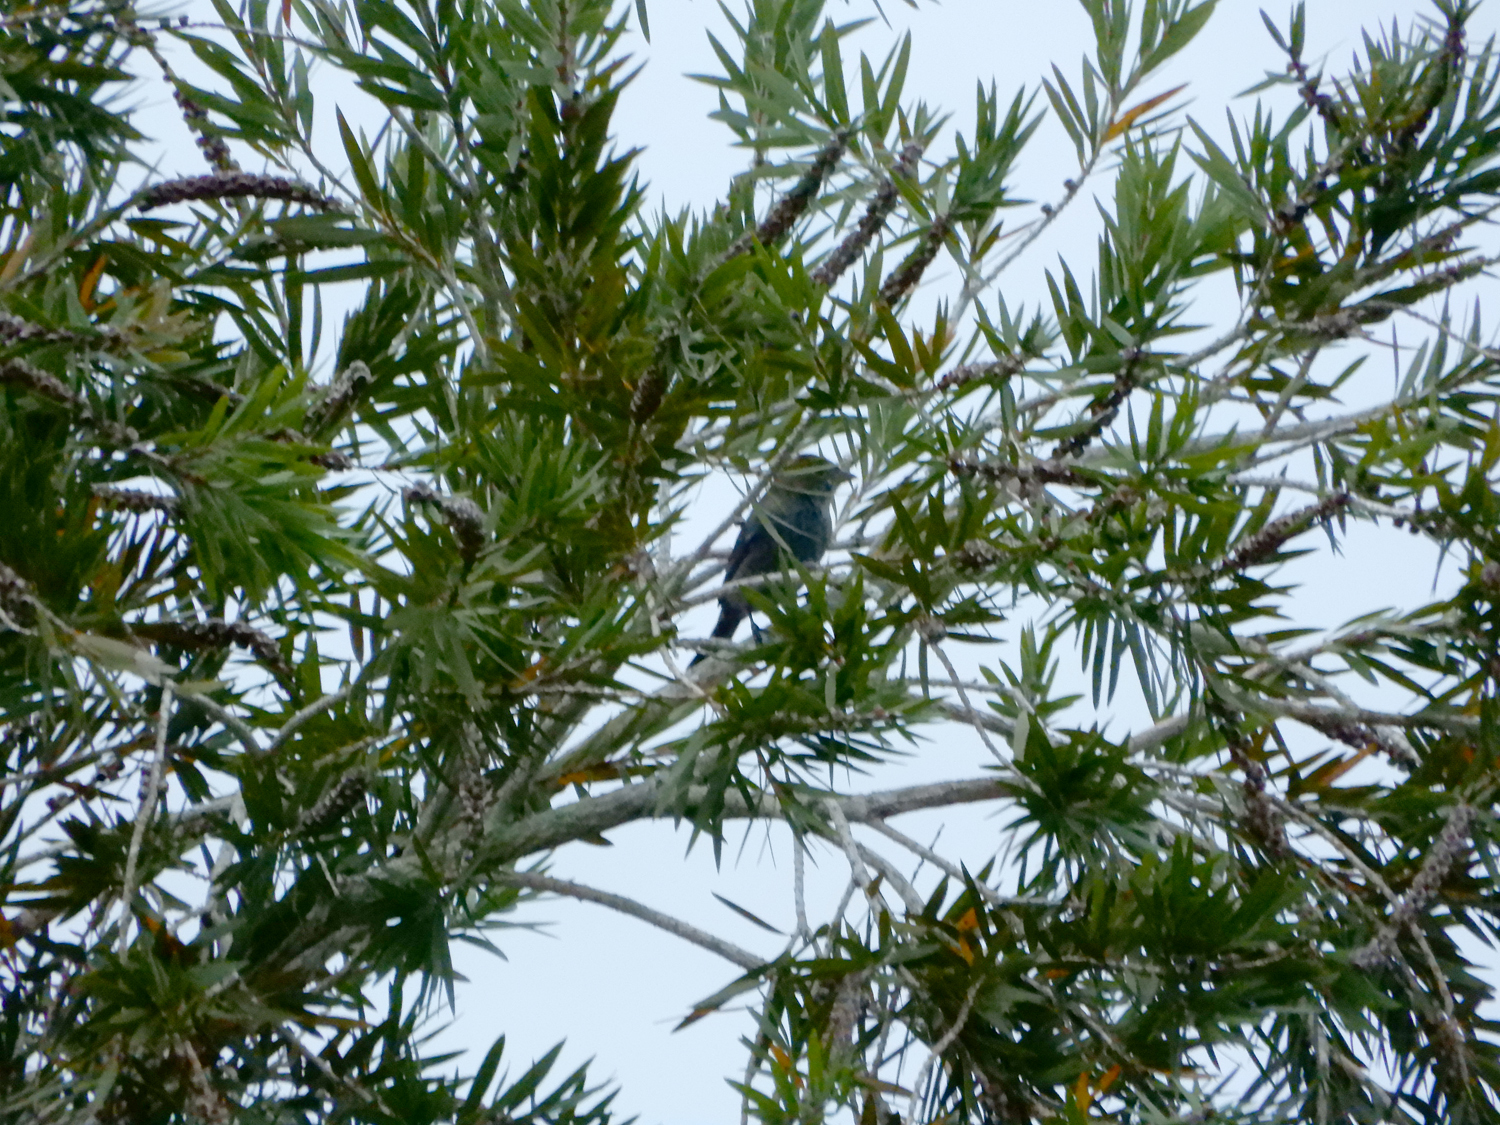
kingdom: Animalia
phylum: Chordata
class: Aves
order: Passeriformes
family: Cardinalidae
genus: Passerina
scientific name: Passerina cyanea
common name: Indigo bunting
